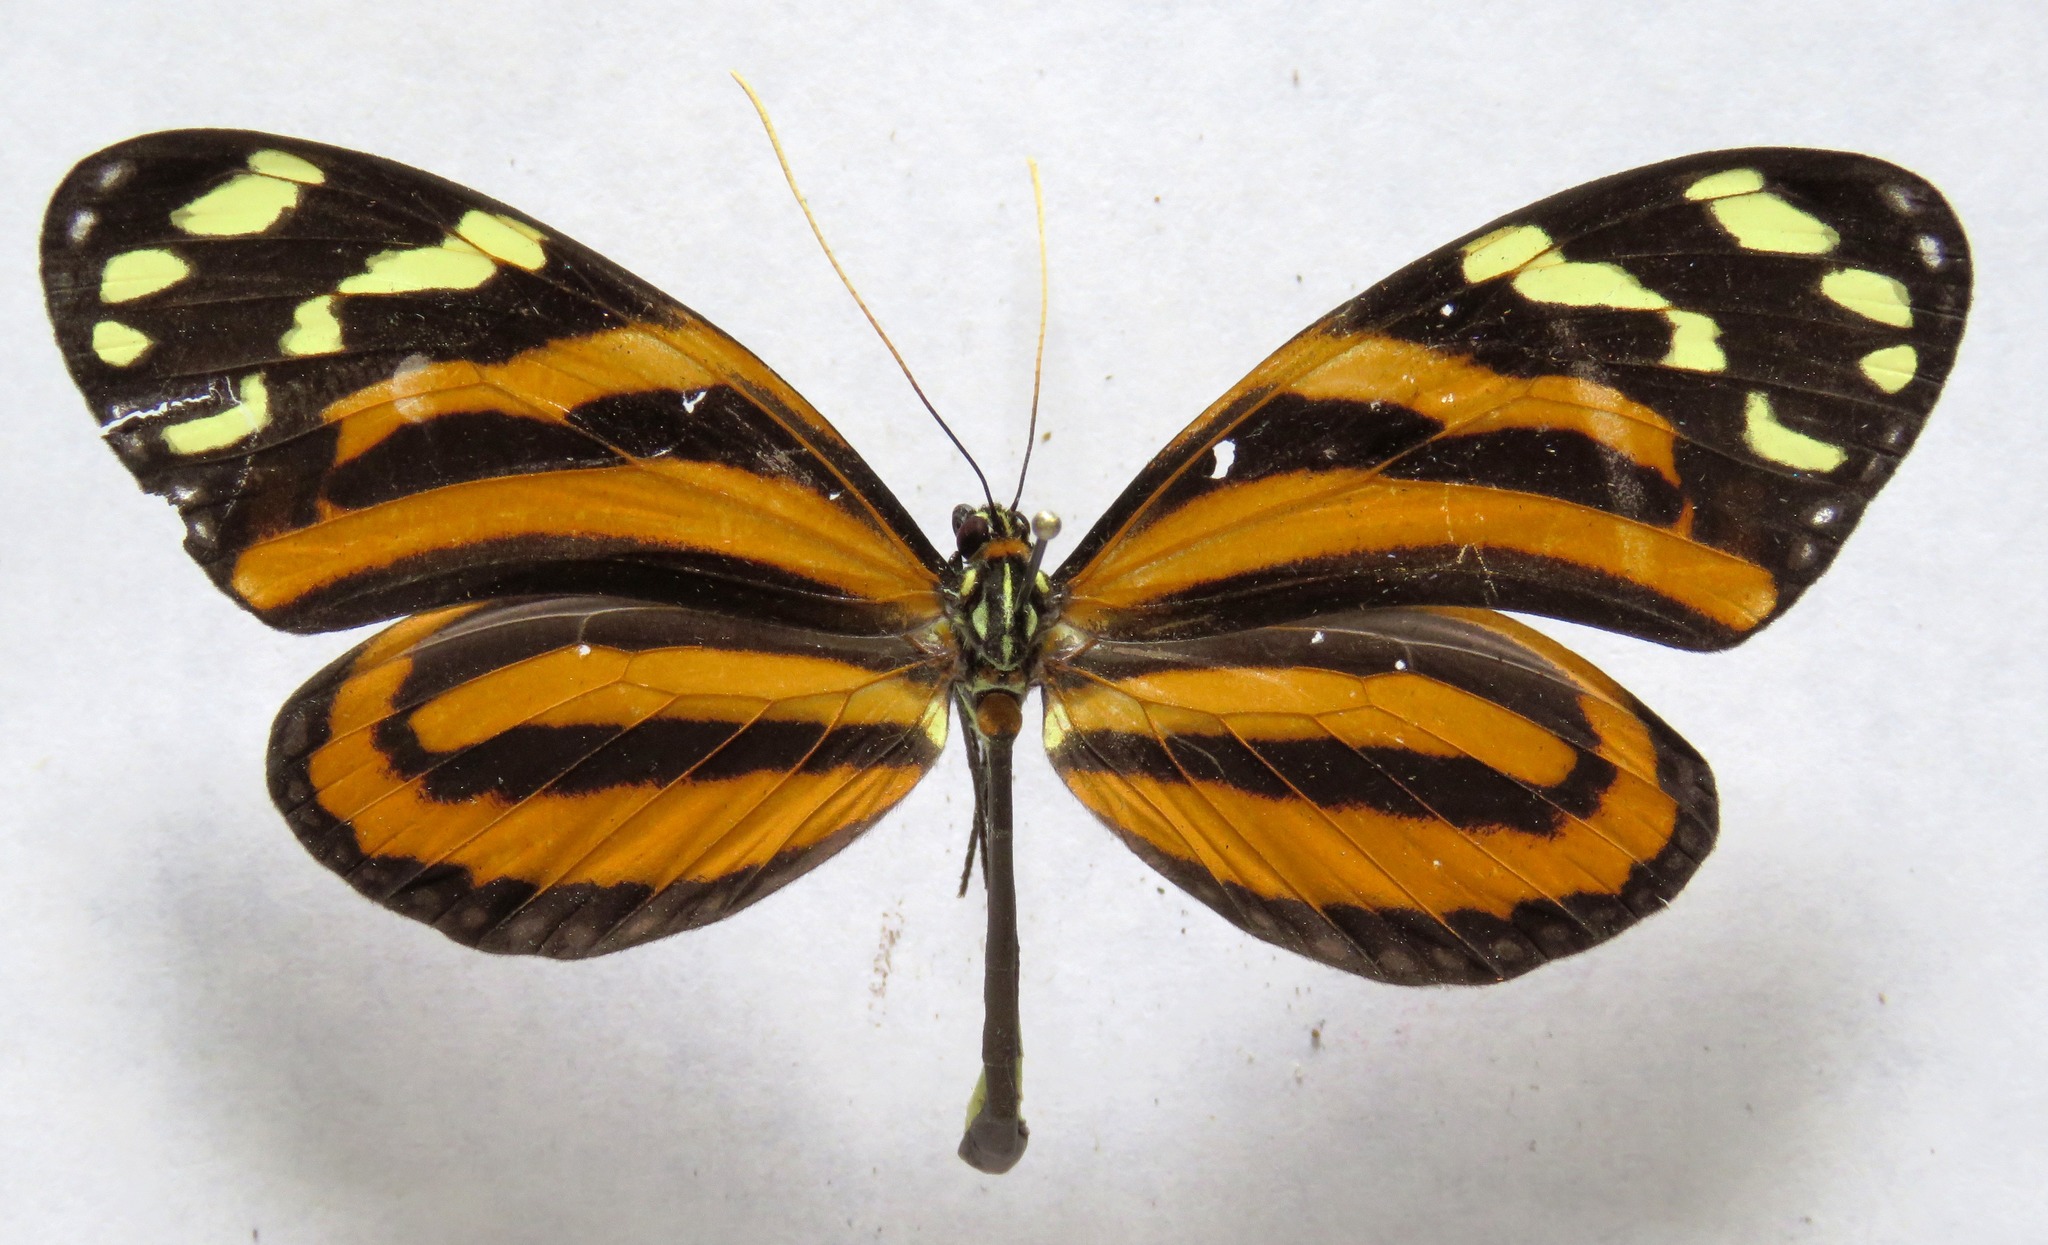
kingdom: Animalia
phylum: Arthropoda
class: Insecta
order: Lepidoptera
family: Nymphalidae
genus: Melinaea
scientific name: Melinaea lilis
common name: Mimic tigerwing
